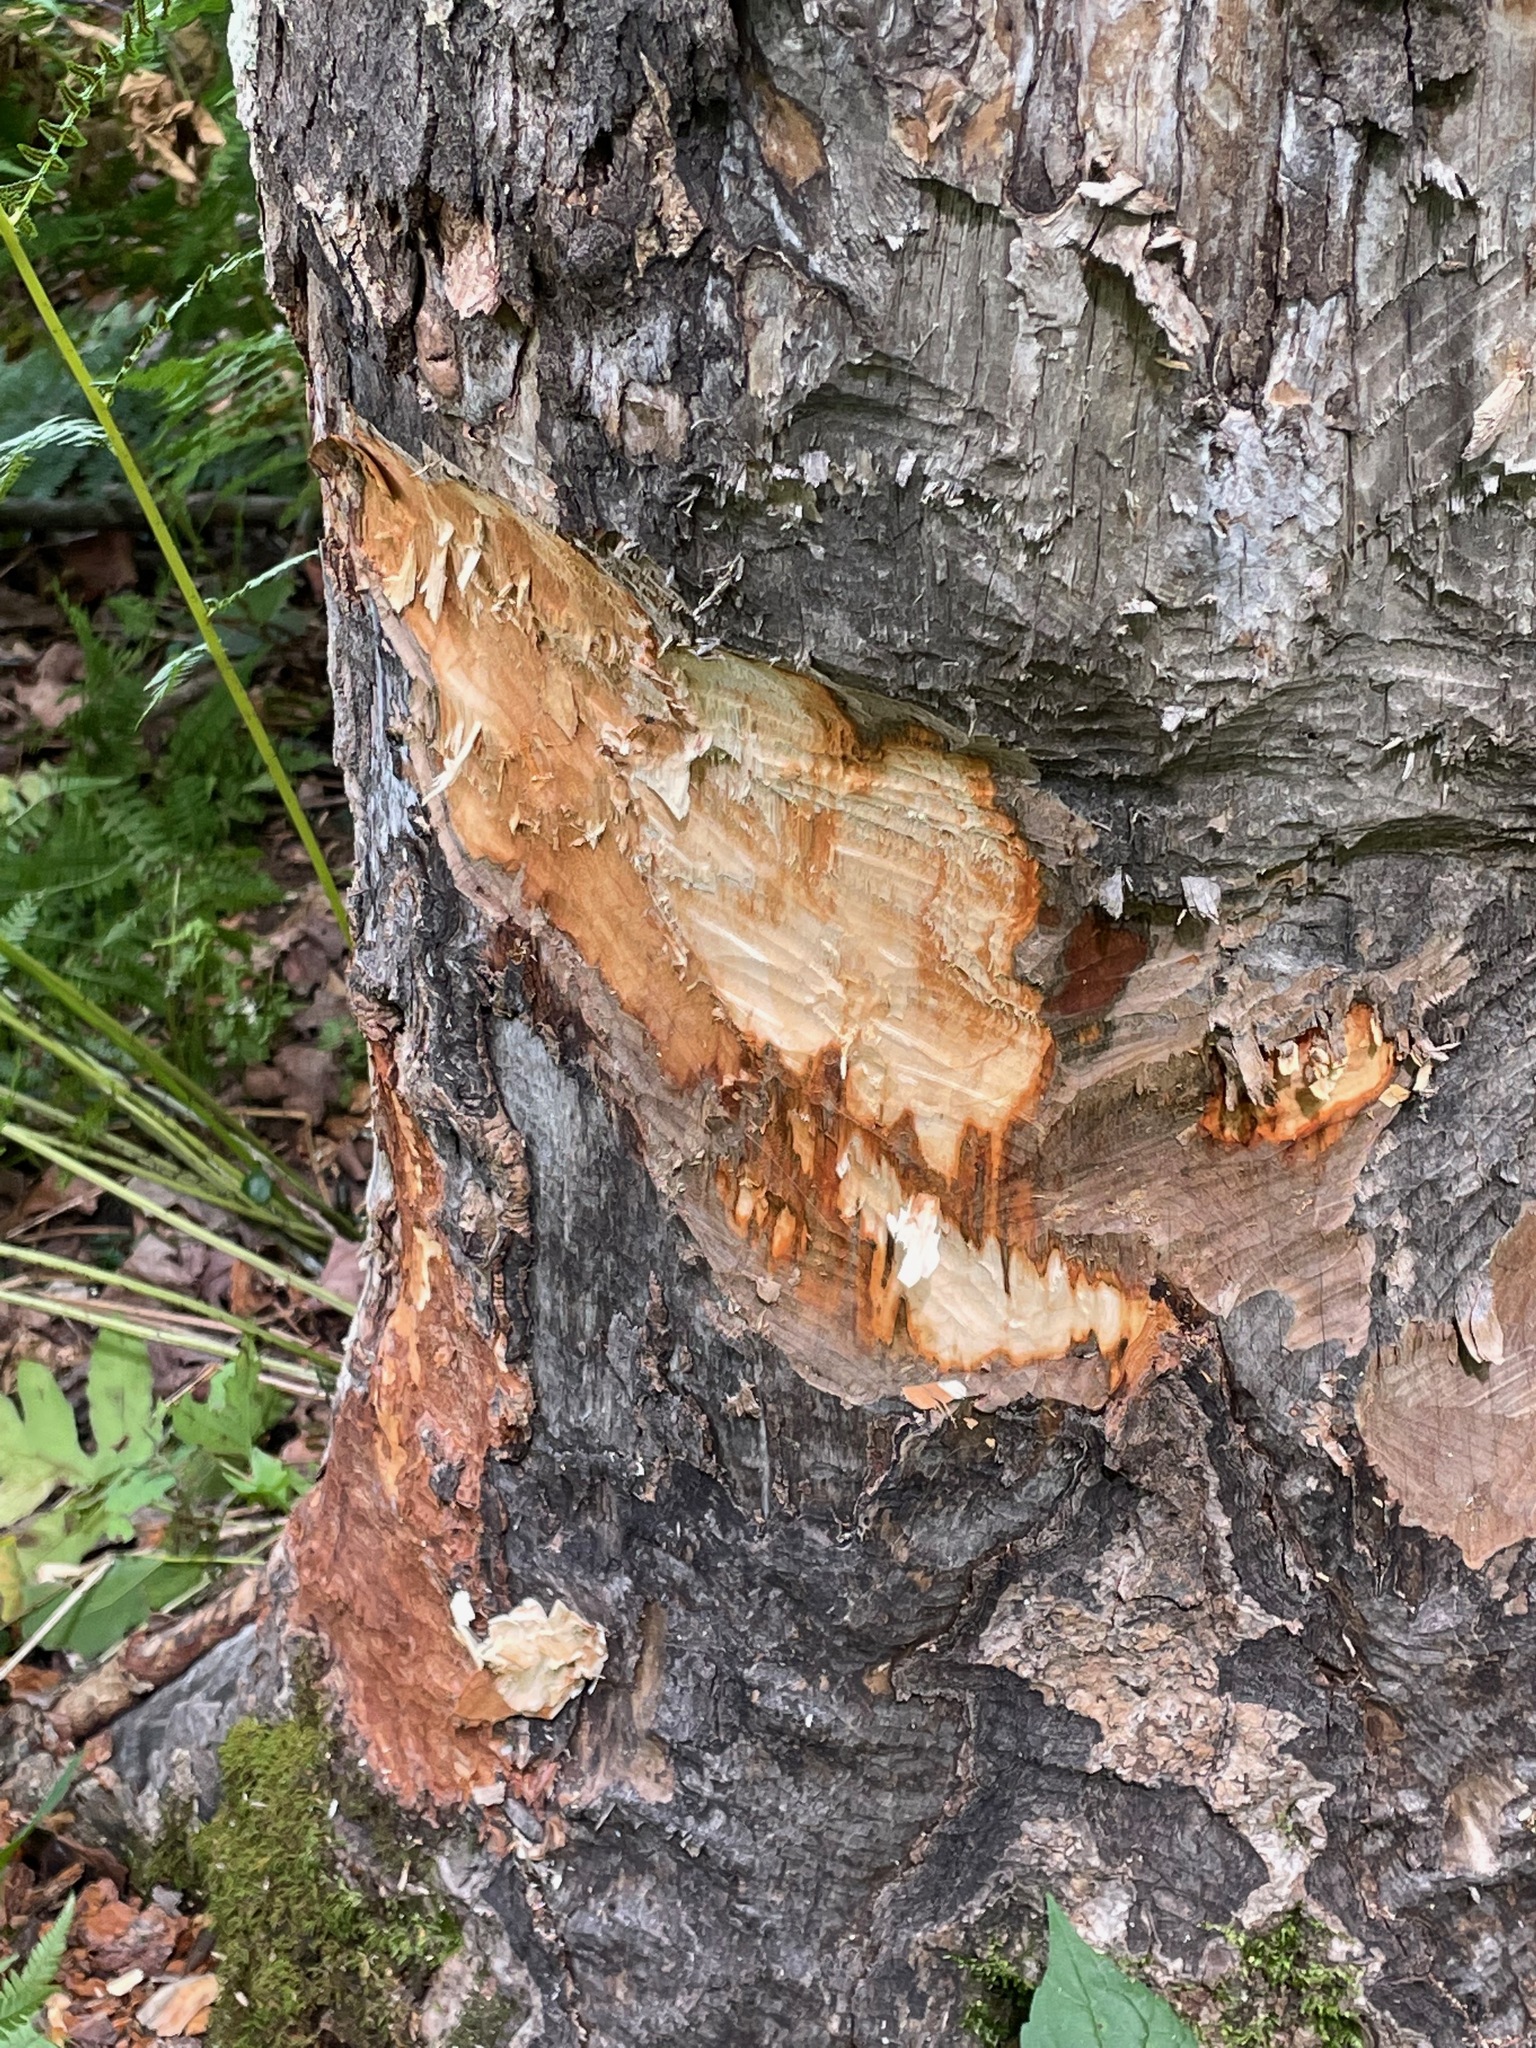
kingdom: Animalia
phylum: Chordata
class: Mammalia
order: Rodentia
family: Castoridae
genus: Castor
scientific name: Castor canadensis
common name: American beaver
